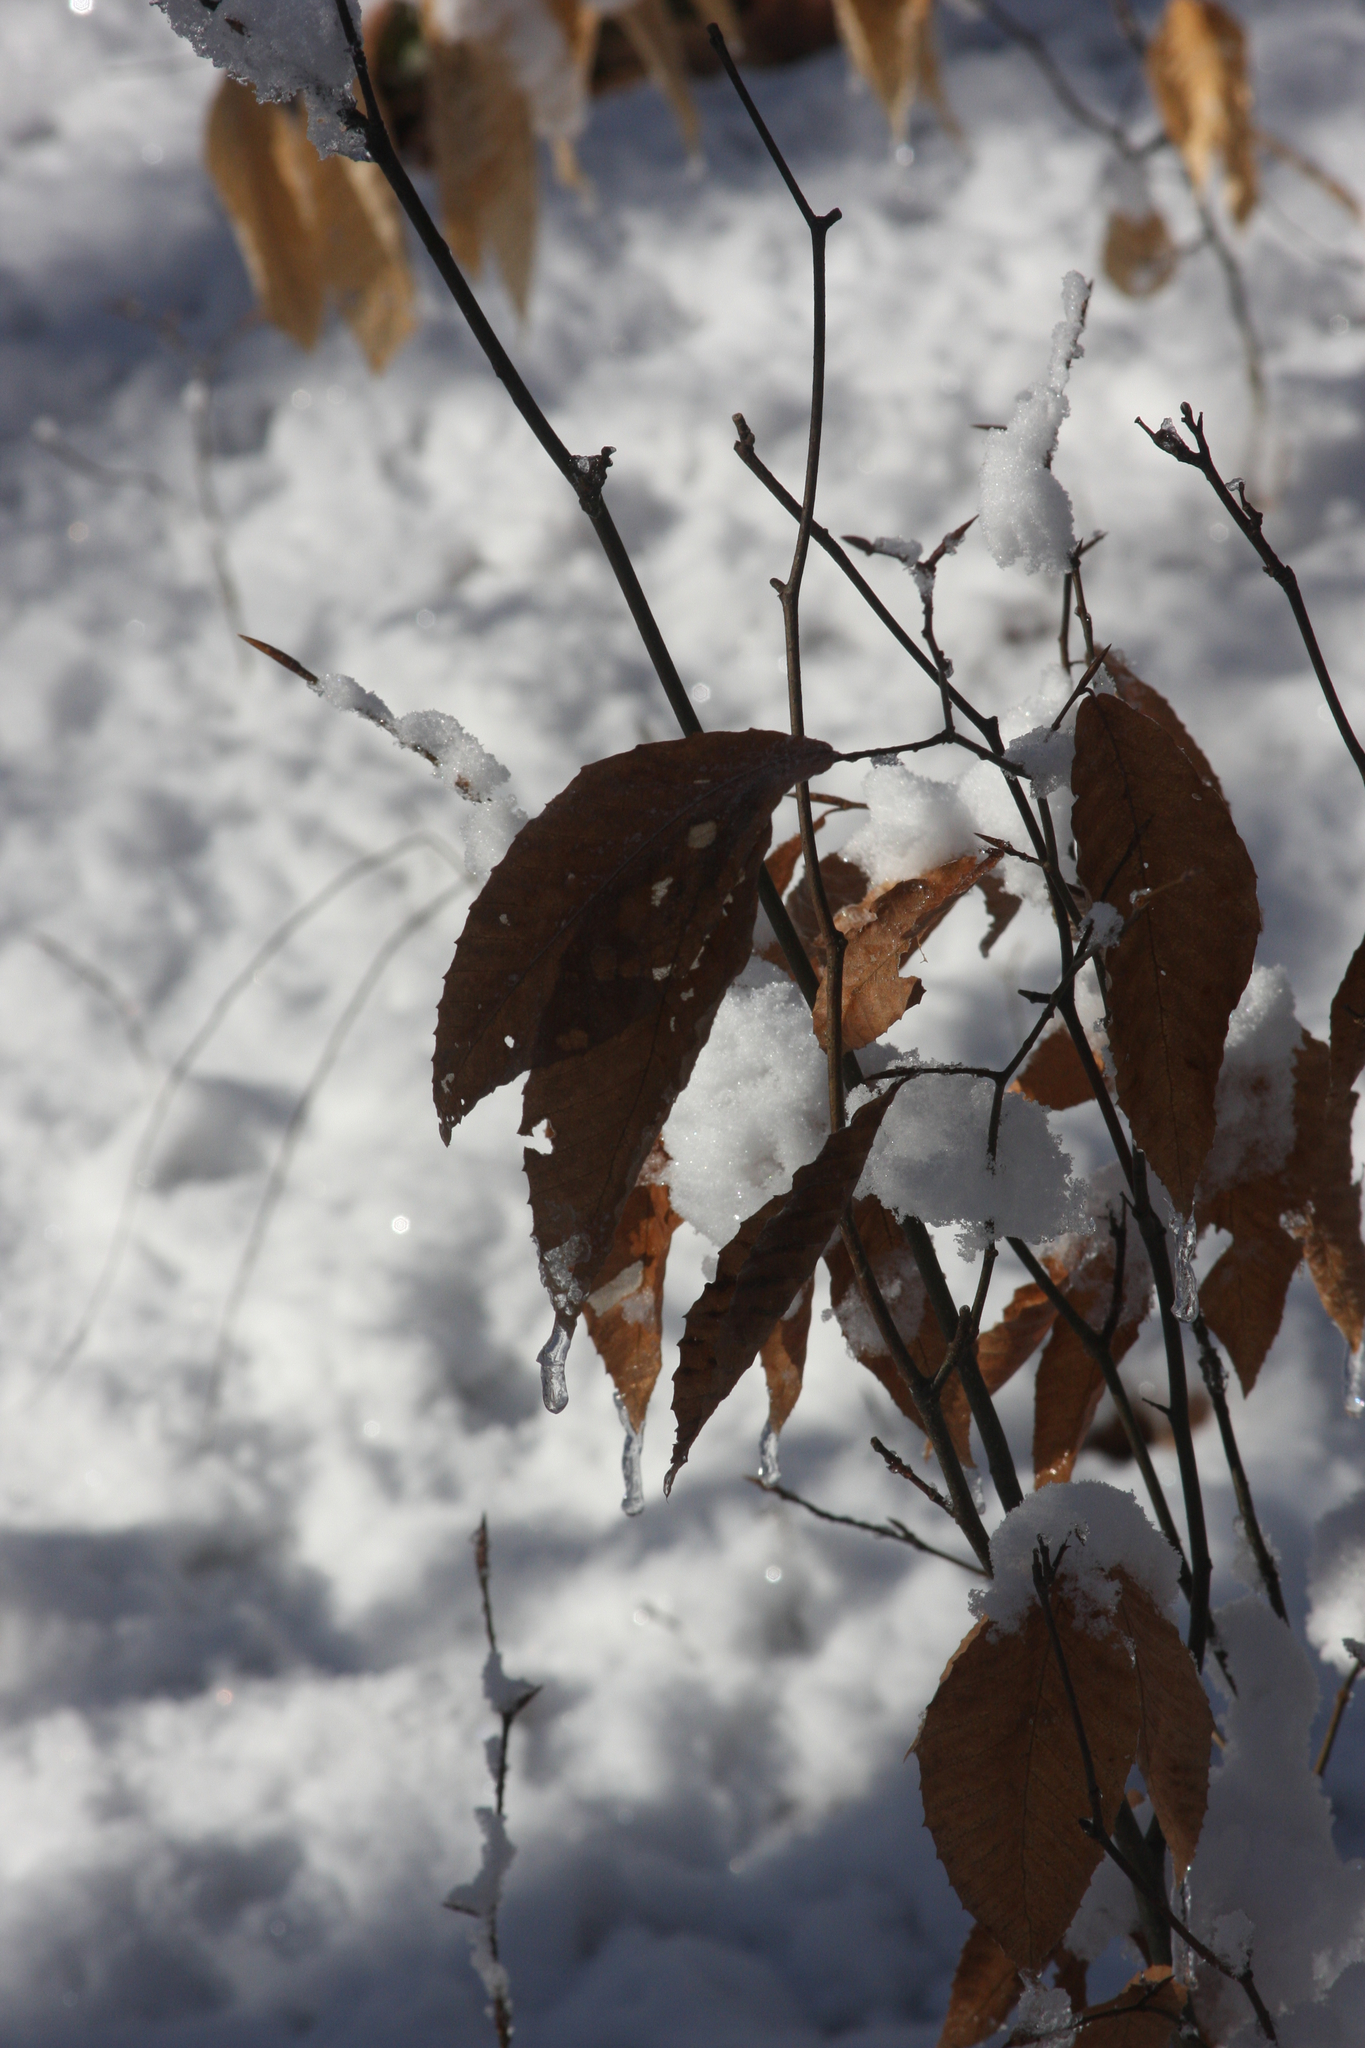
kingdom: Plantae
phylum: Tracheophyta
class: Magnoliopsida
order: Fagales
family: Fagaceae
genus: Fagus
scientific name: Fagus grandifolia
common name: American beech
